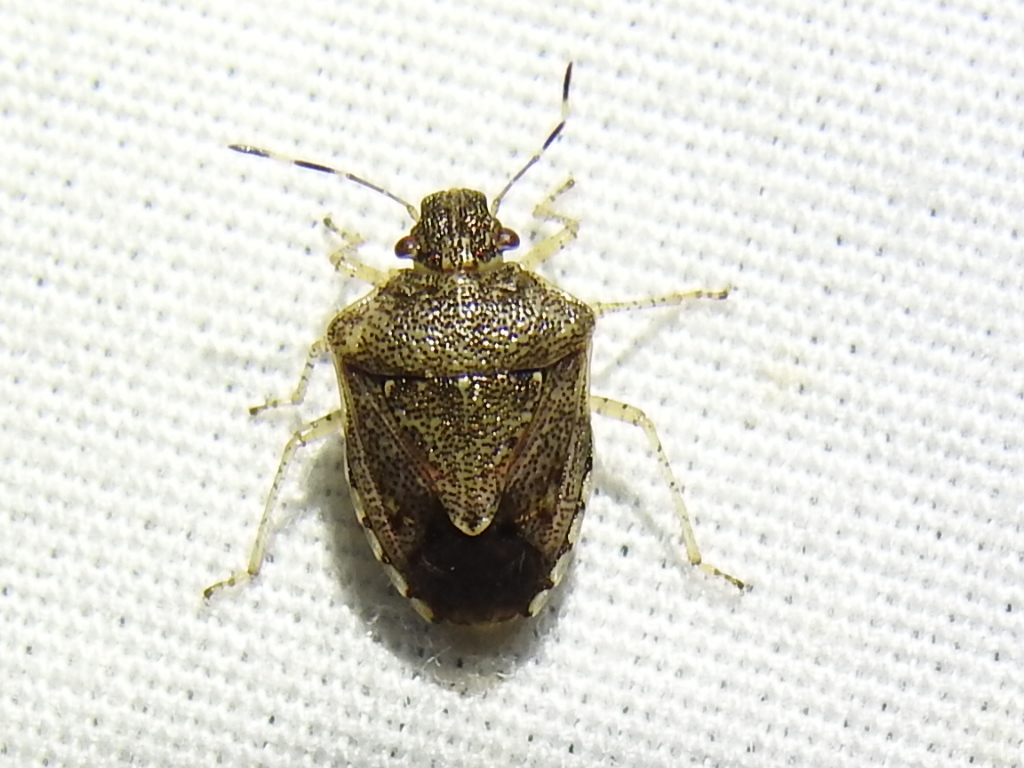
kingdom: Animalia
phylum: Arthropoda
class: Insecta
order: Hemiptera
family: Pentatomidae
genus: Mormidea
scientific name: Mormidea cubrosa
